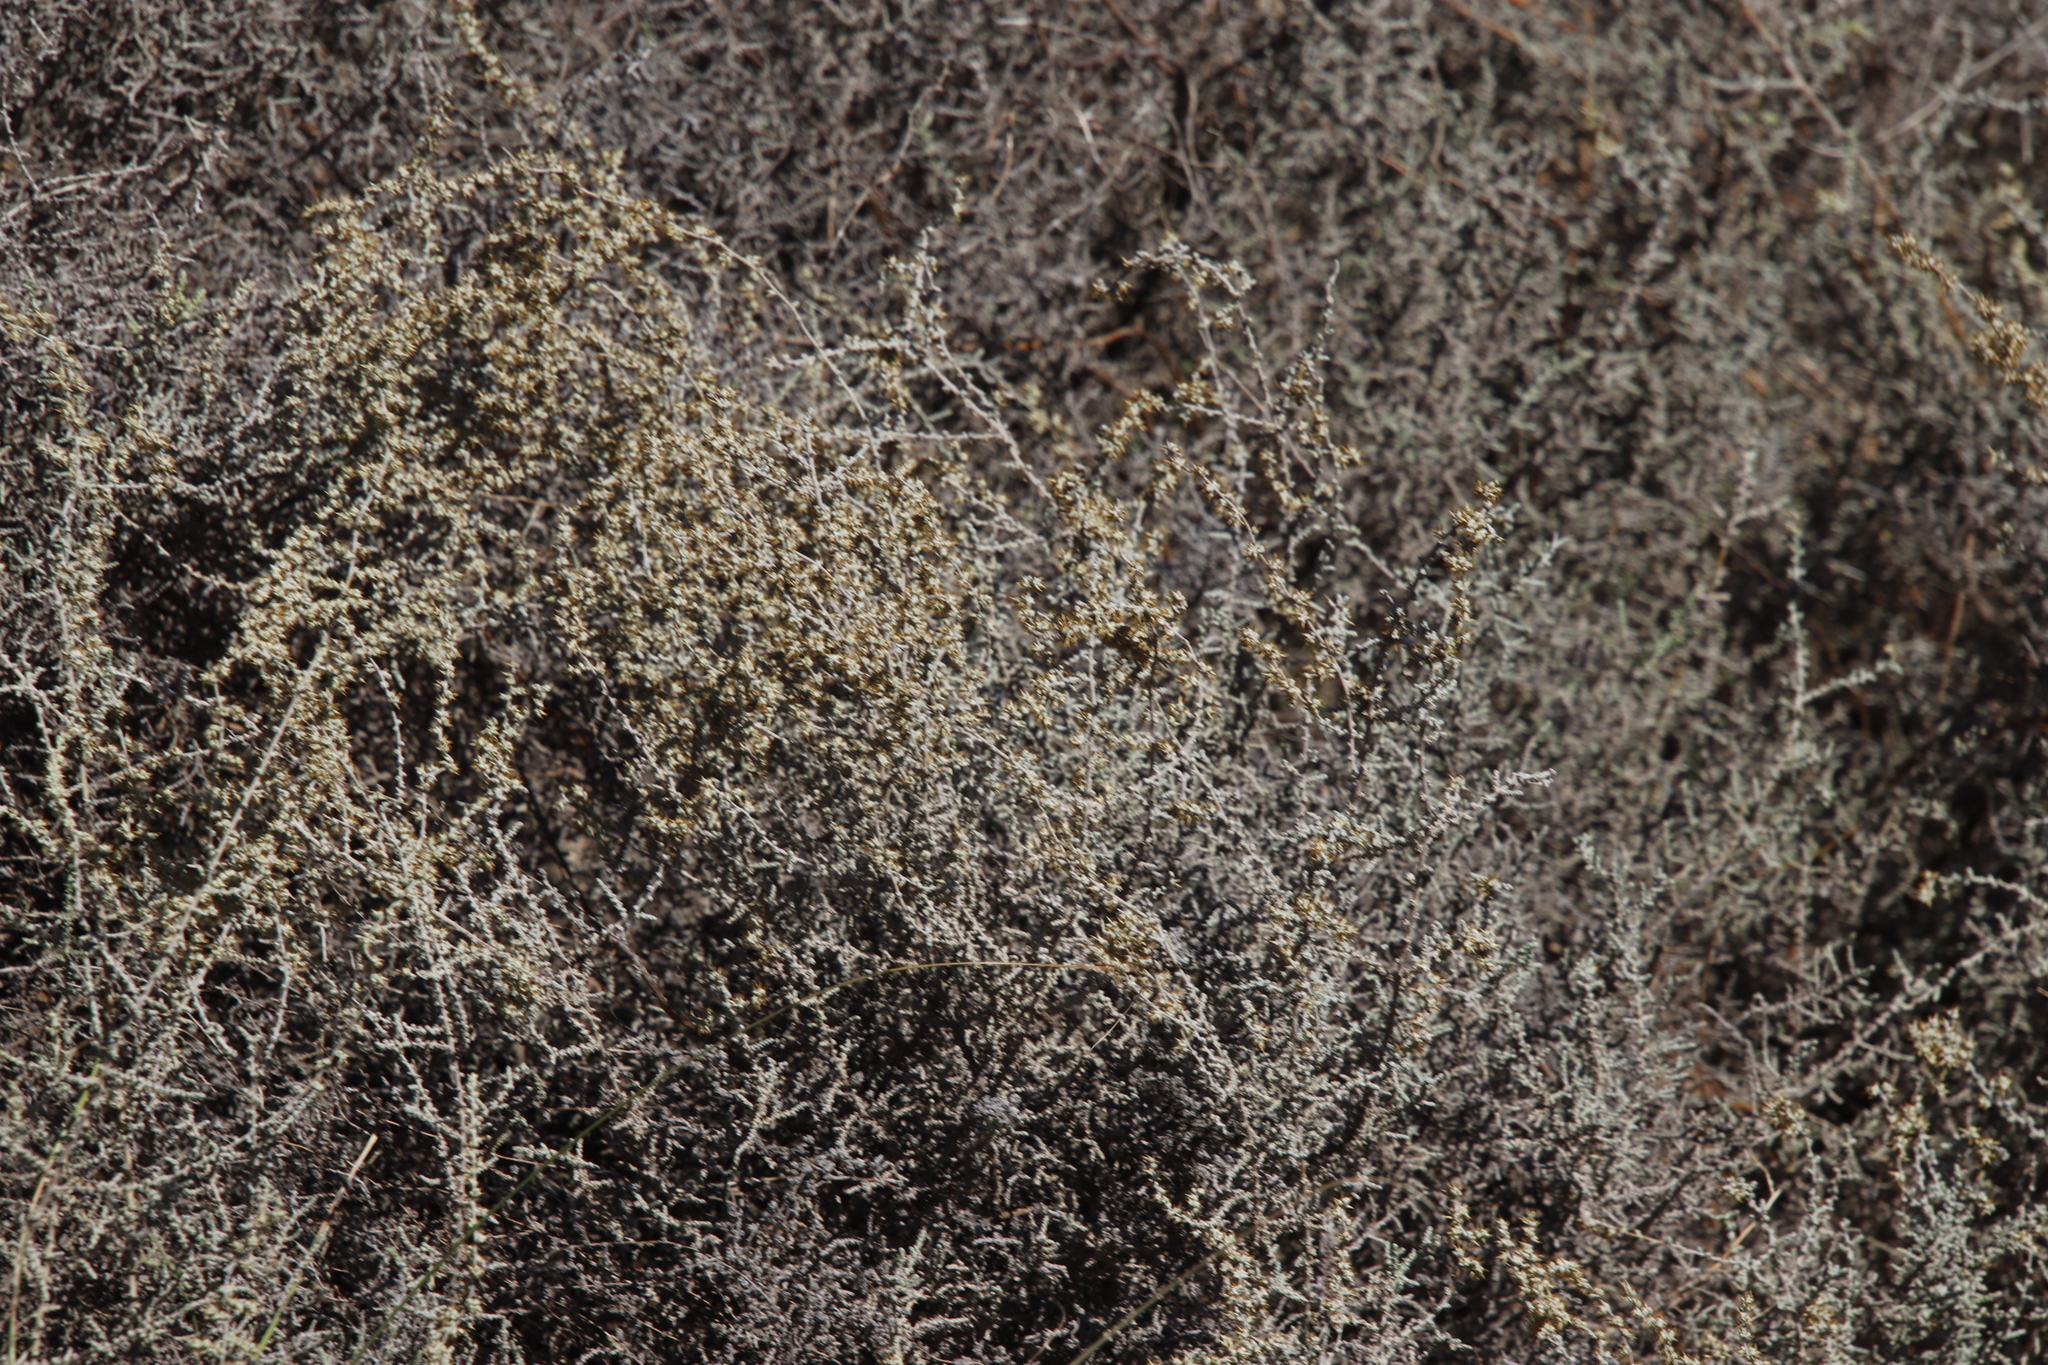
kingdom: Plantae
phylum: Tracheophyta
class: Magnoliopsida
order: Asterales
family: Asteraceae
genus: Seriphium
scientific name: Seriphium plumosum
